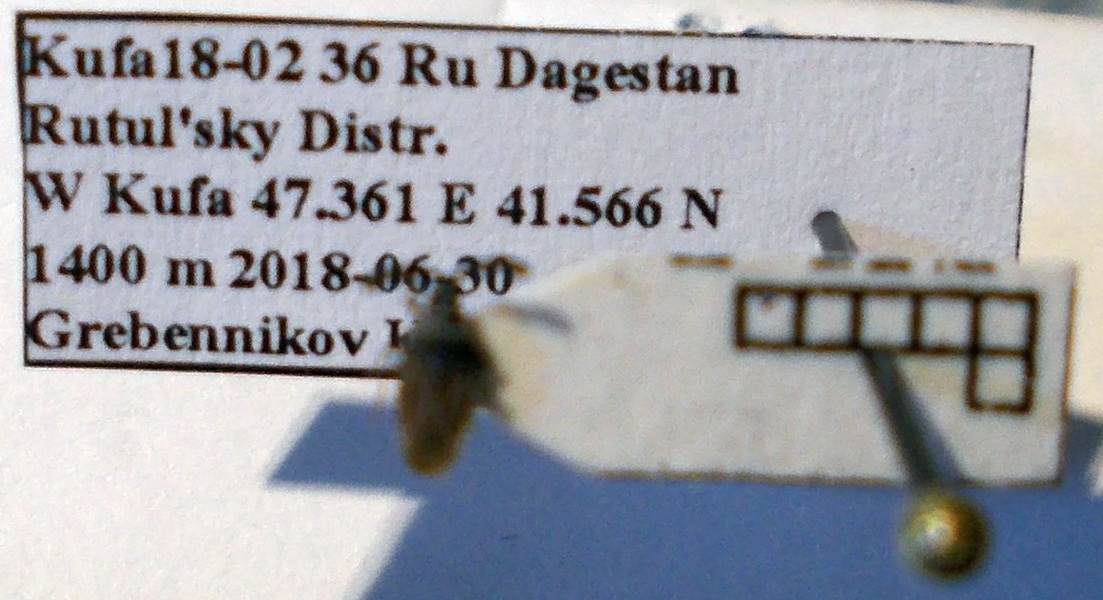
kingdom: Animalia
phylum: Arthropoda
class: Insecta
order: Hemiptera
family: Tingidae
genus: Copium
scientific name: Copium clavicorne
